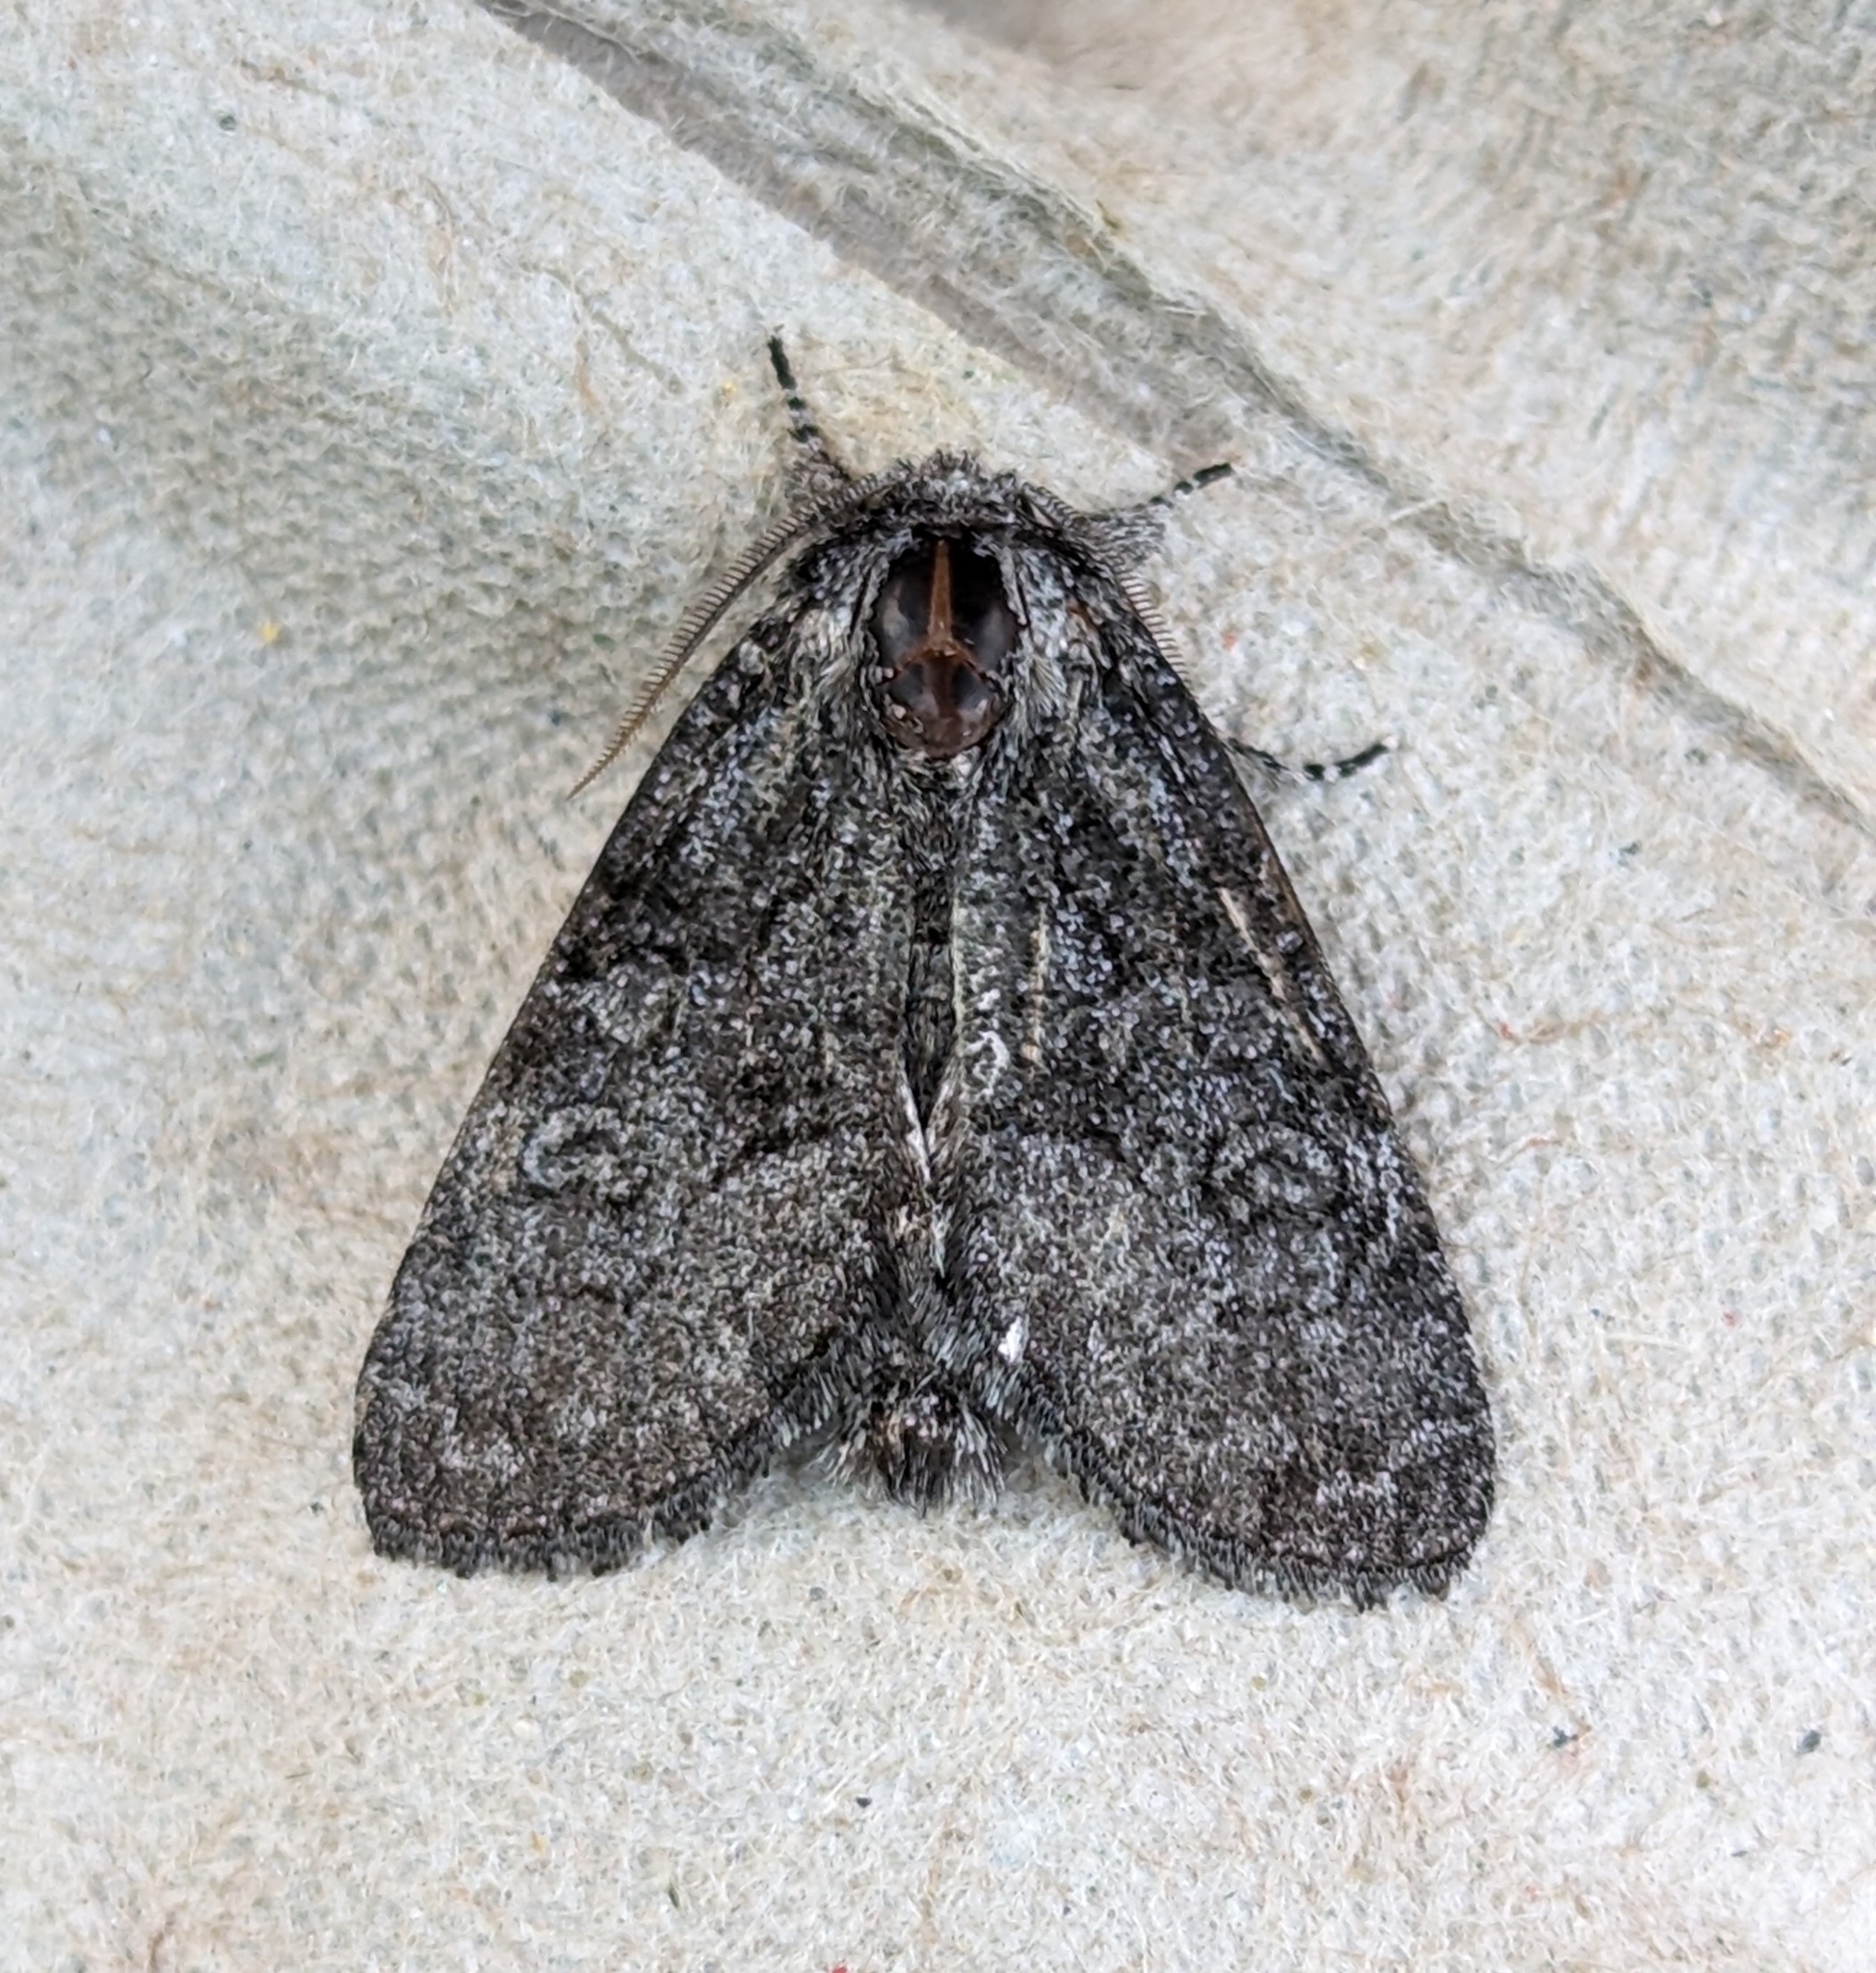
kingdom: Animalia
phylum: Arthropoda
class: Insecta
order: Lepidoptera
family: Noctuidae
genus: Raphia
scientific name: Raphia frater
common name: Brother
